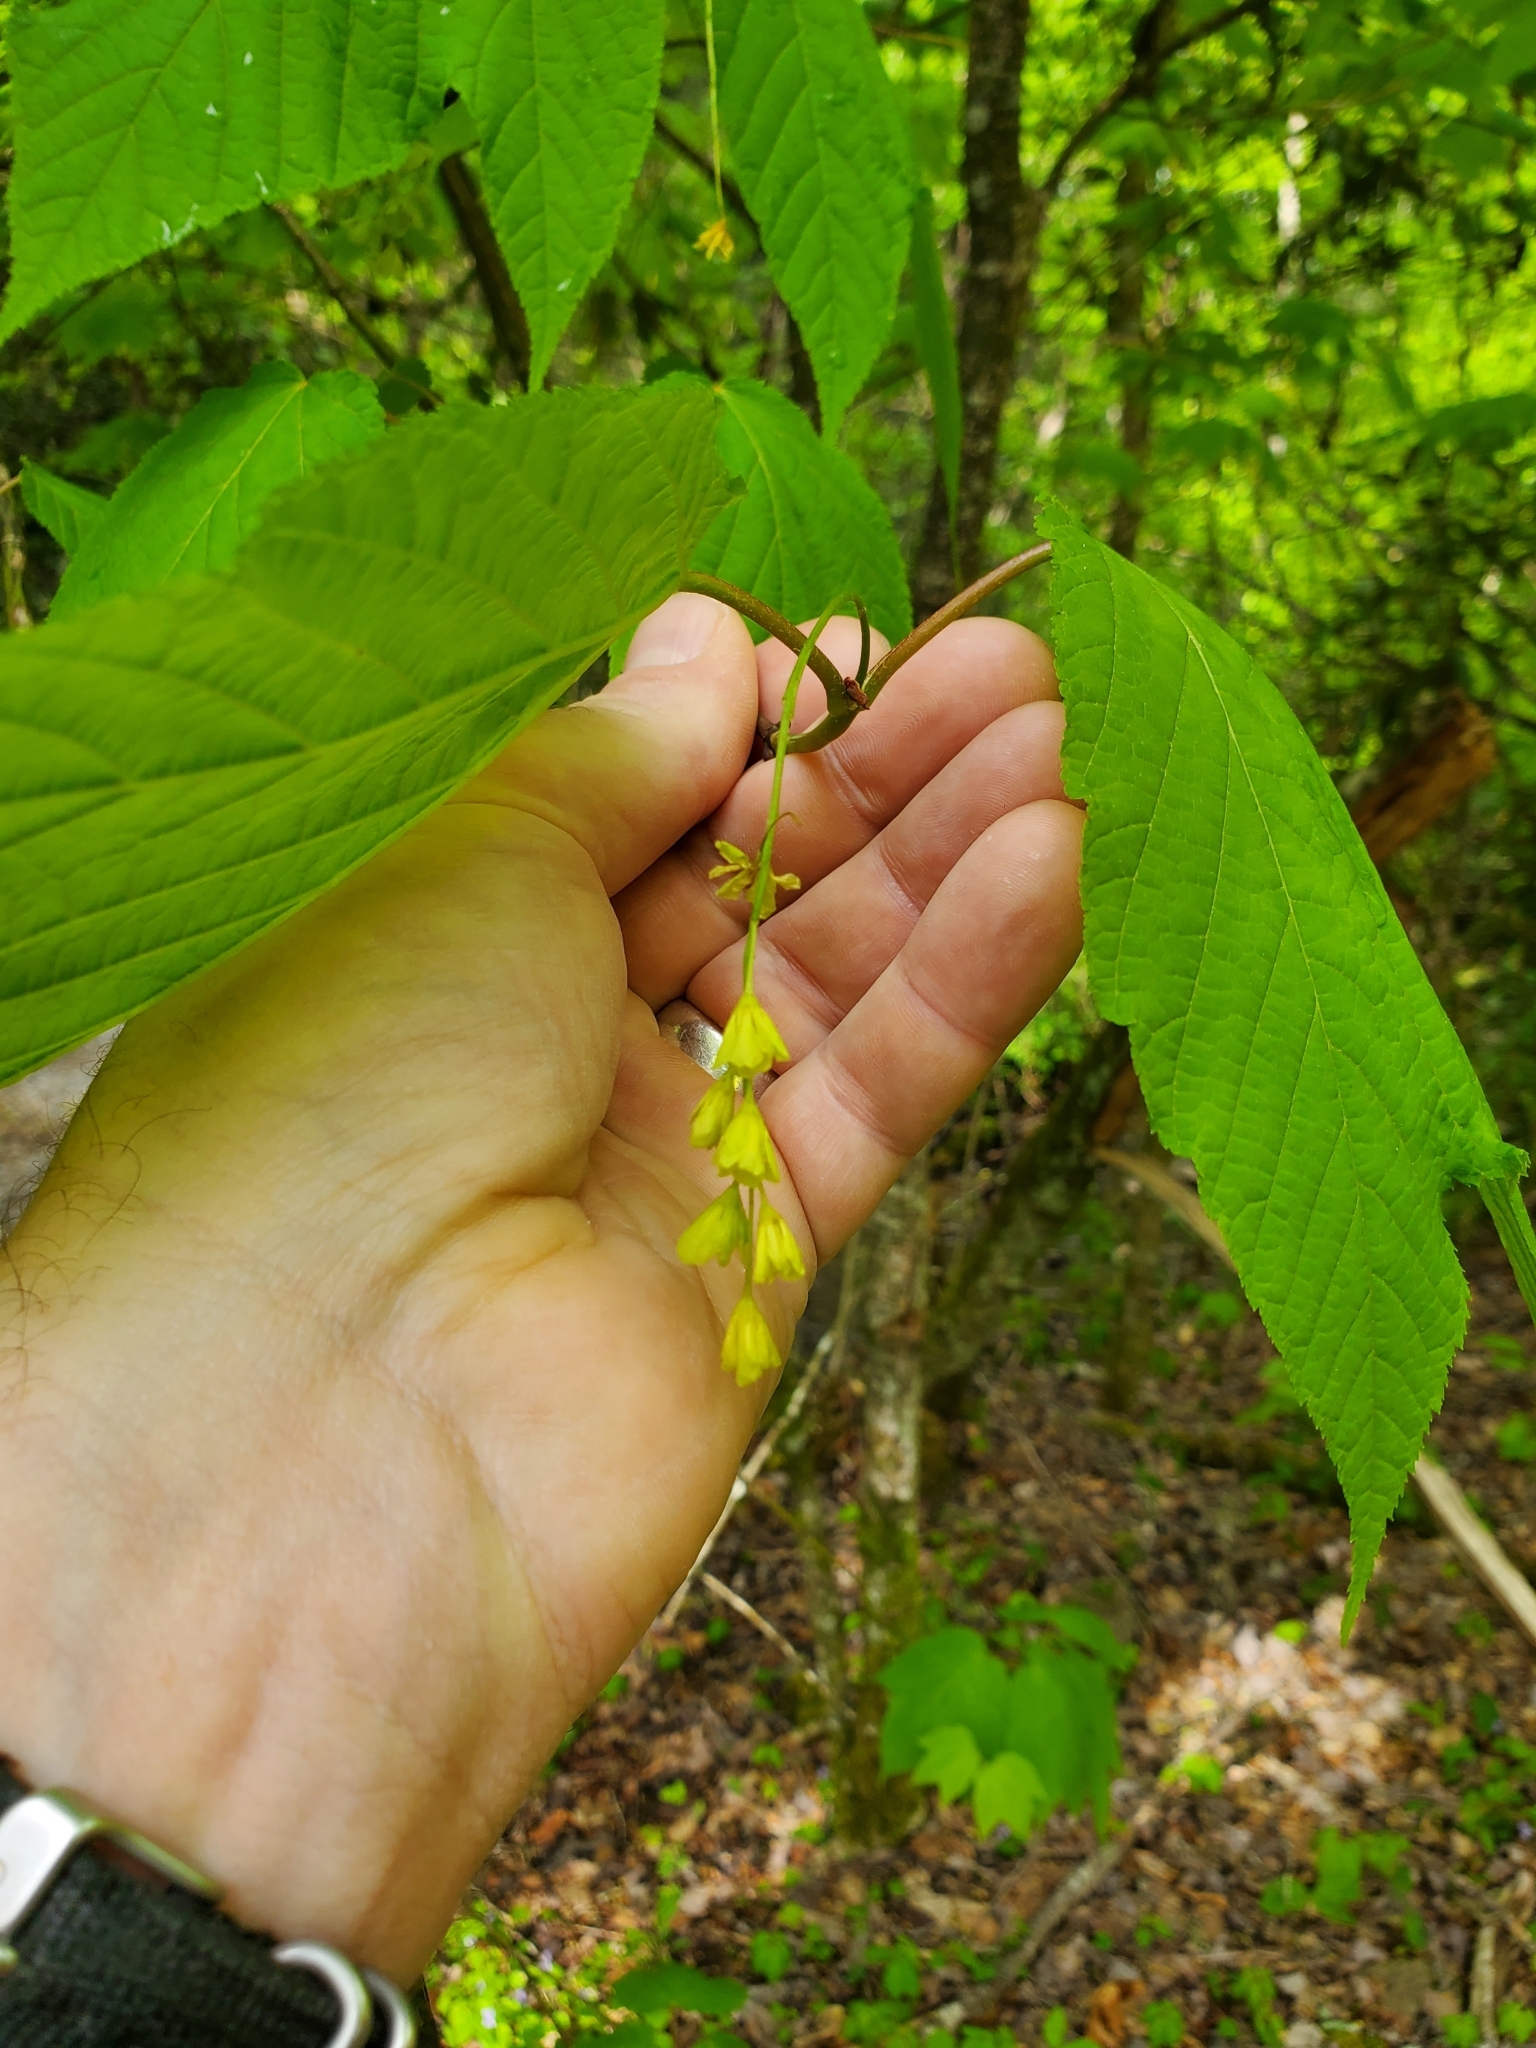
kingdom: Plantae
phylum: Tracheophyta
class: Magnoliopsida
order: Sapindales
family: Sapindaceae
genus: Acer
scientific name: Acer pensylvanicum
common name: Moosewood
